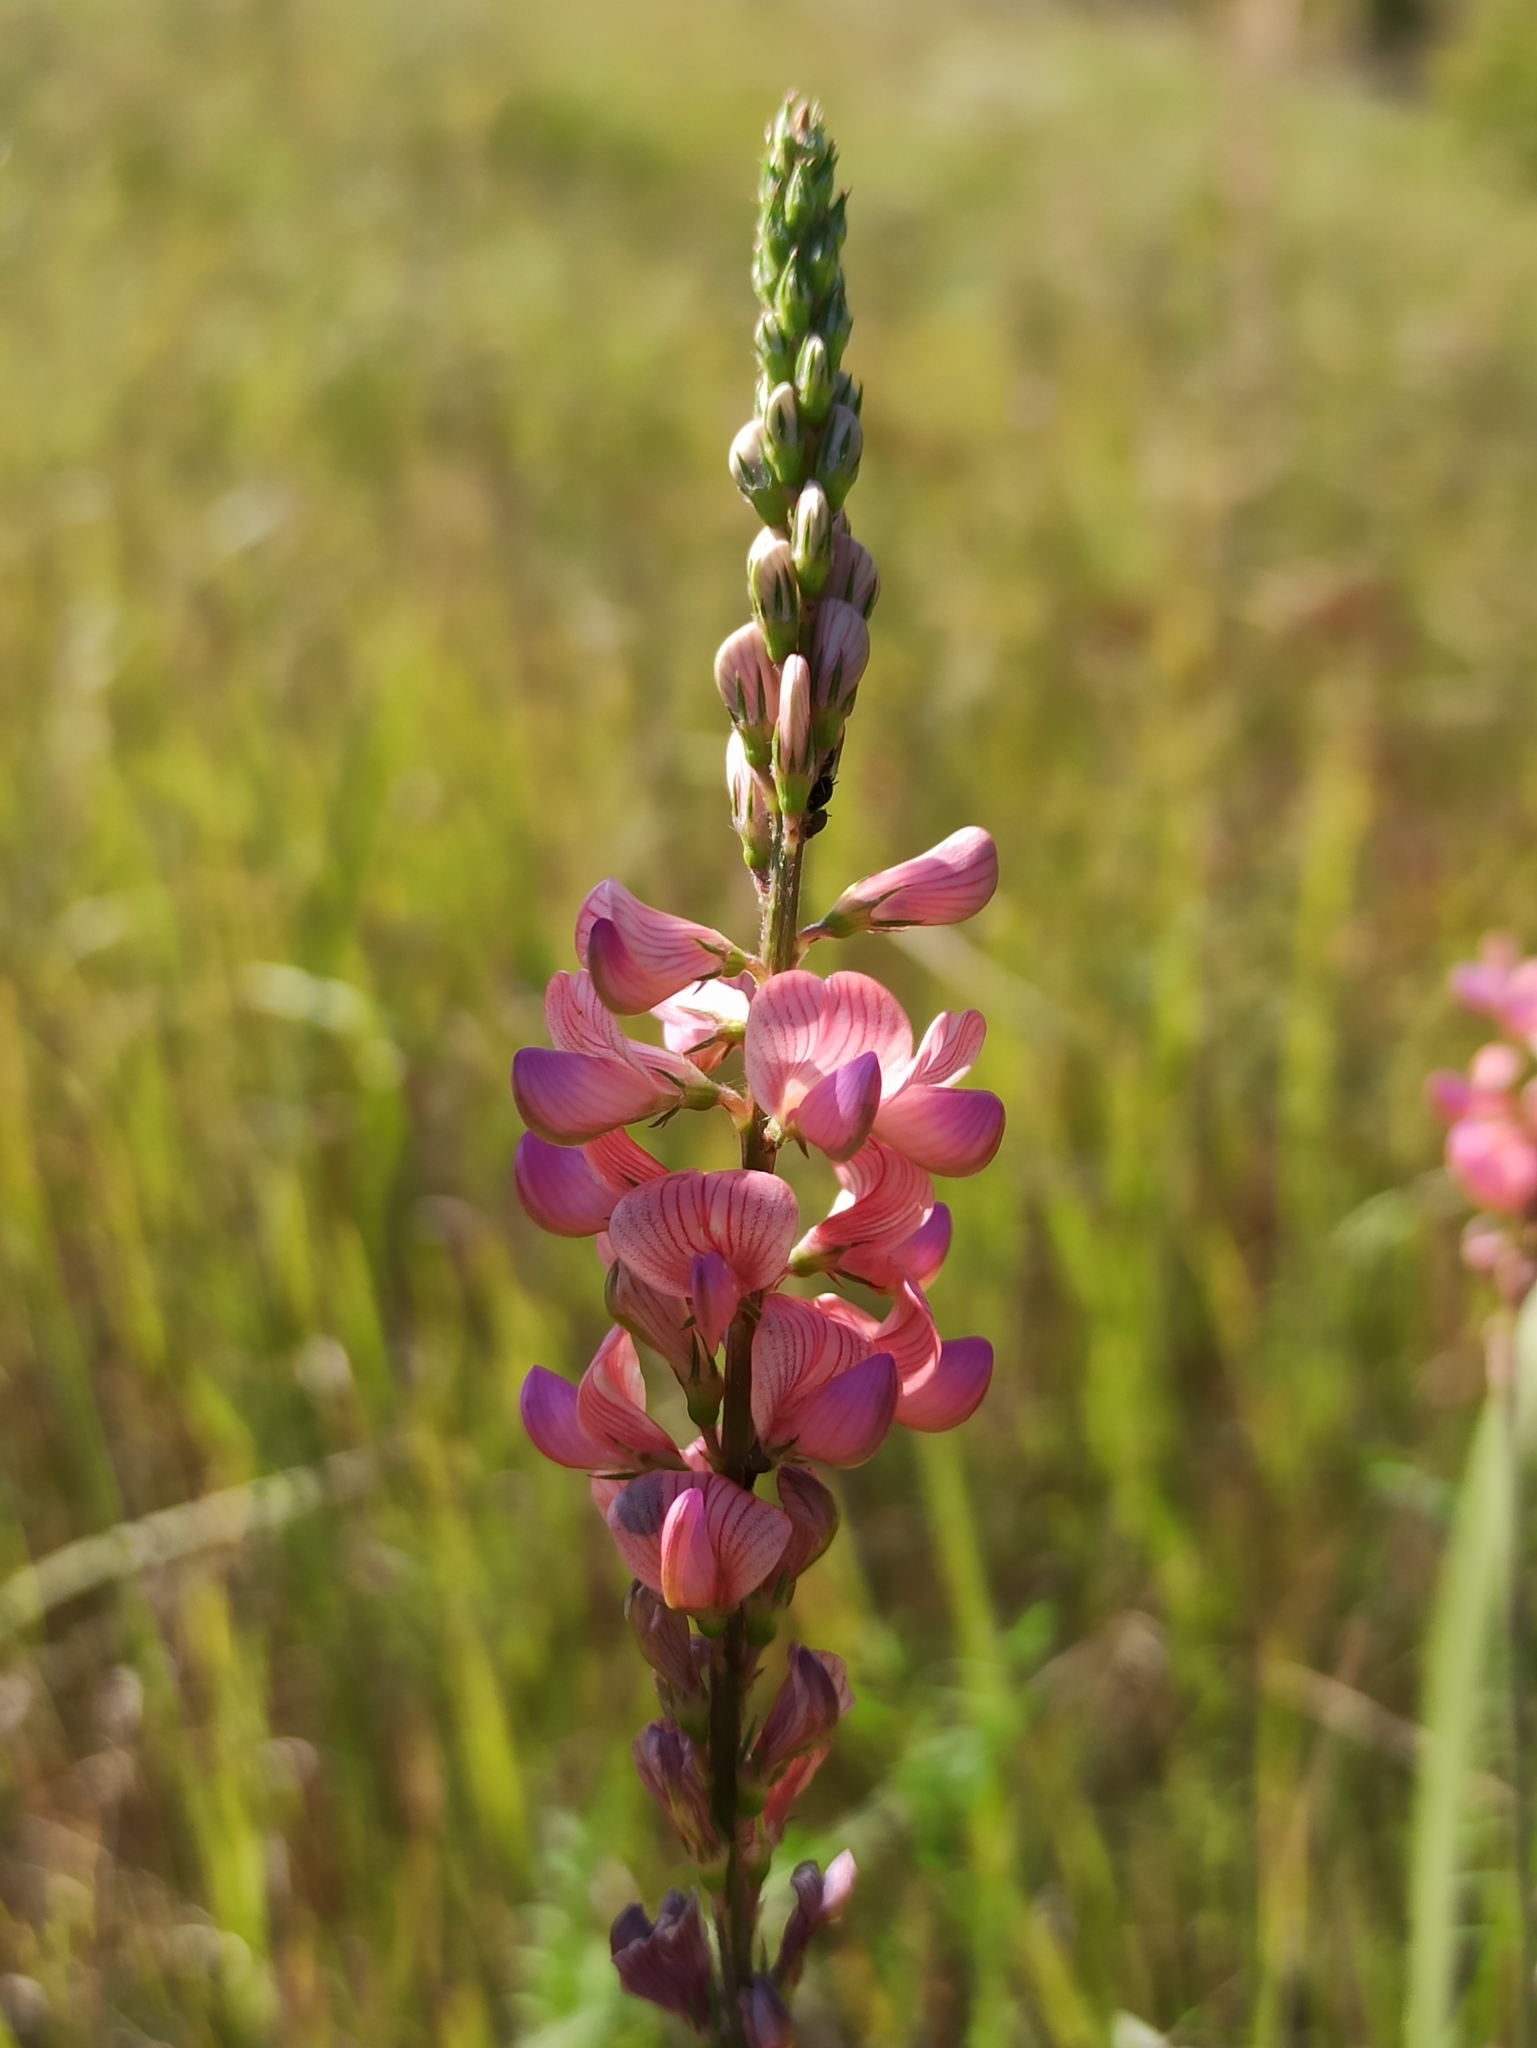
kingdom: Plantae
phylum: Tracheophyta
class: Magnoliopsida
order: Fabales
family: Fabaceae
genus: Onobrychis
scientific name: Onobrychis arenaria
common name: Sand esparcet
